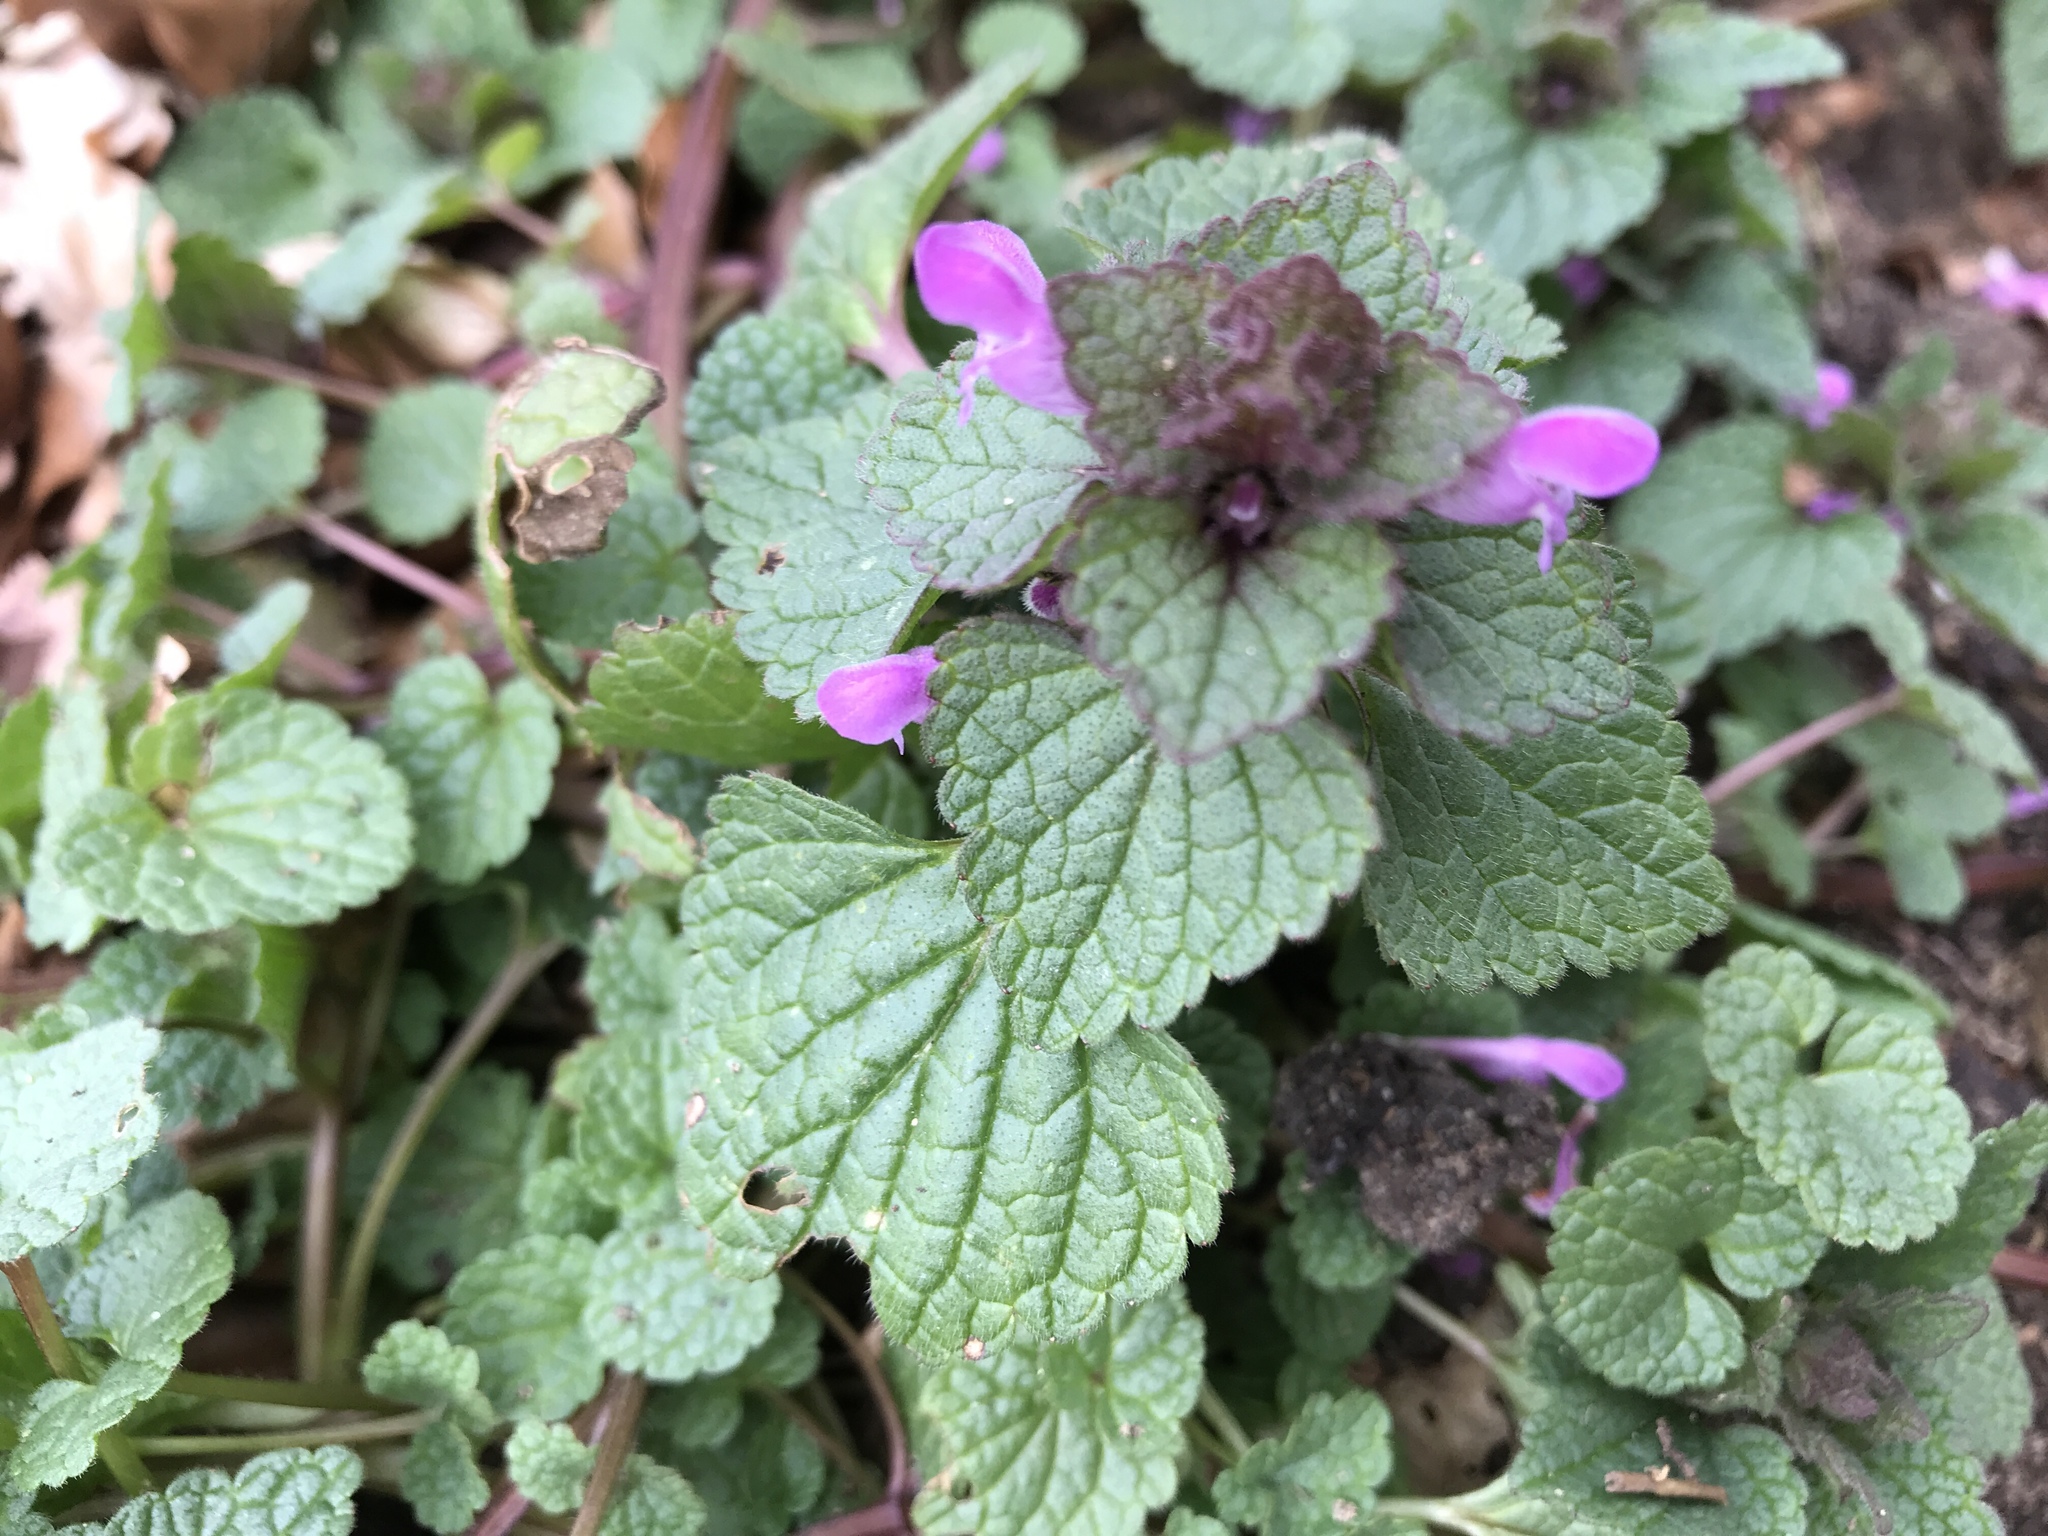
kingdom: Plantae
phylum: Tracheophyta
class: Magnoliopsida
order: Lamiales
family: Lamiaceae
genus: Lamium
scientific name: Lamium purpureum
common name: Red dead-nettle
